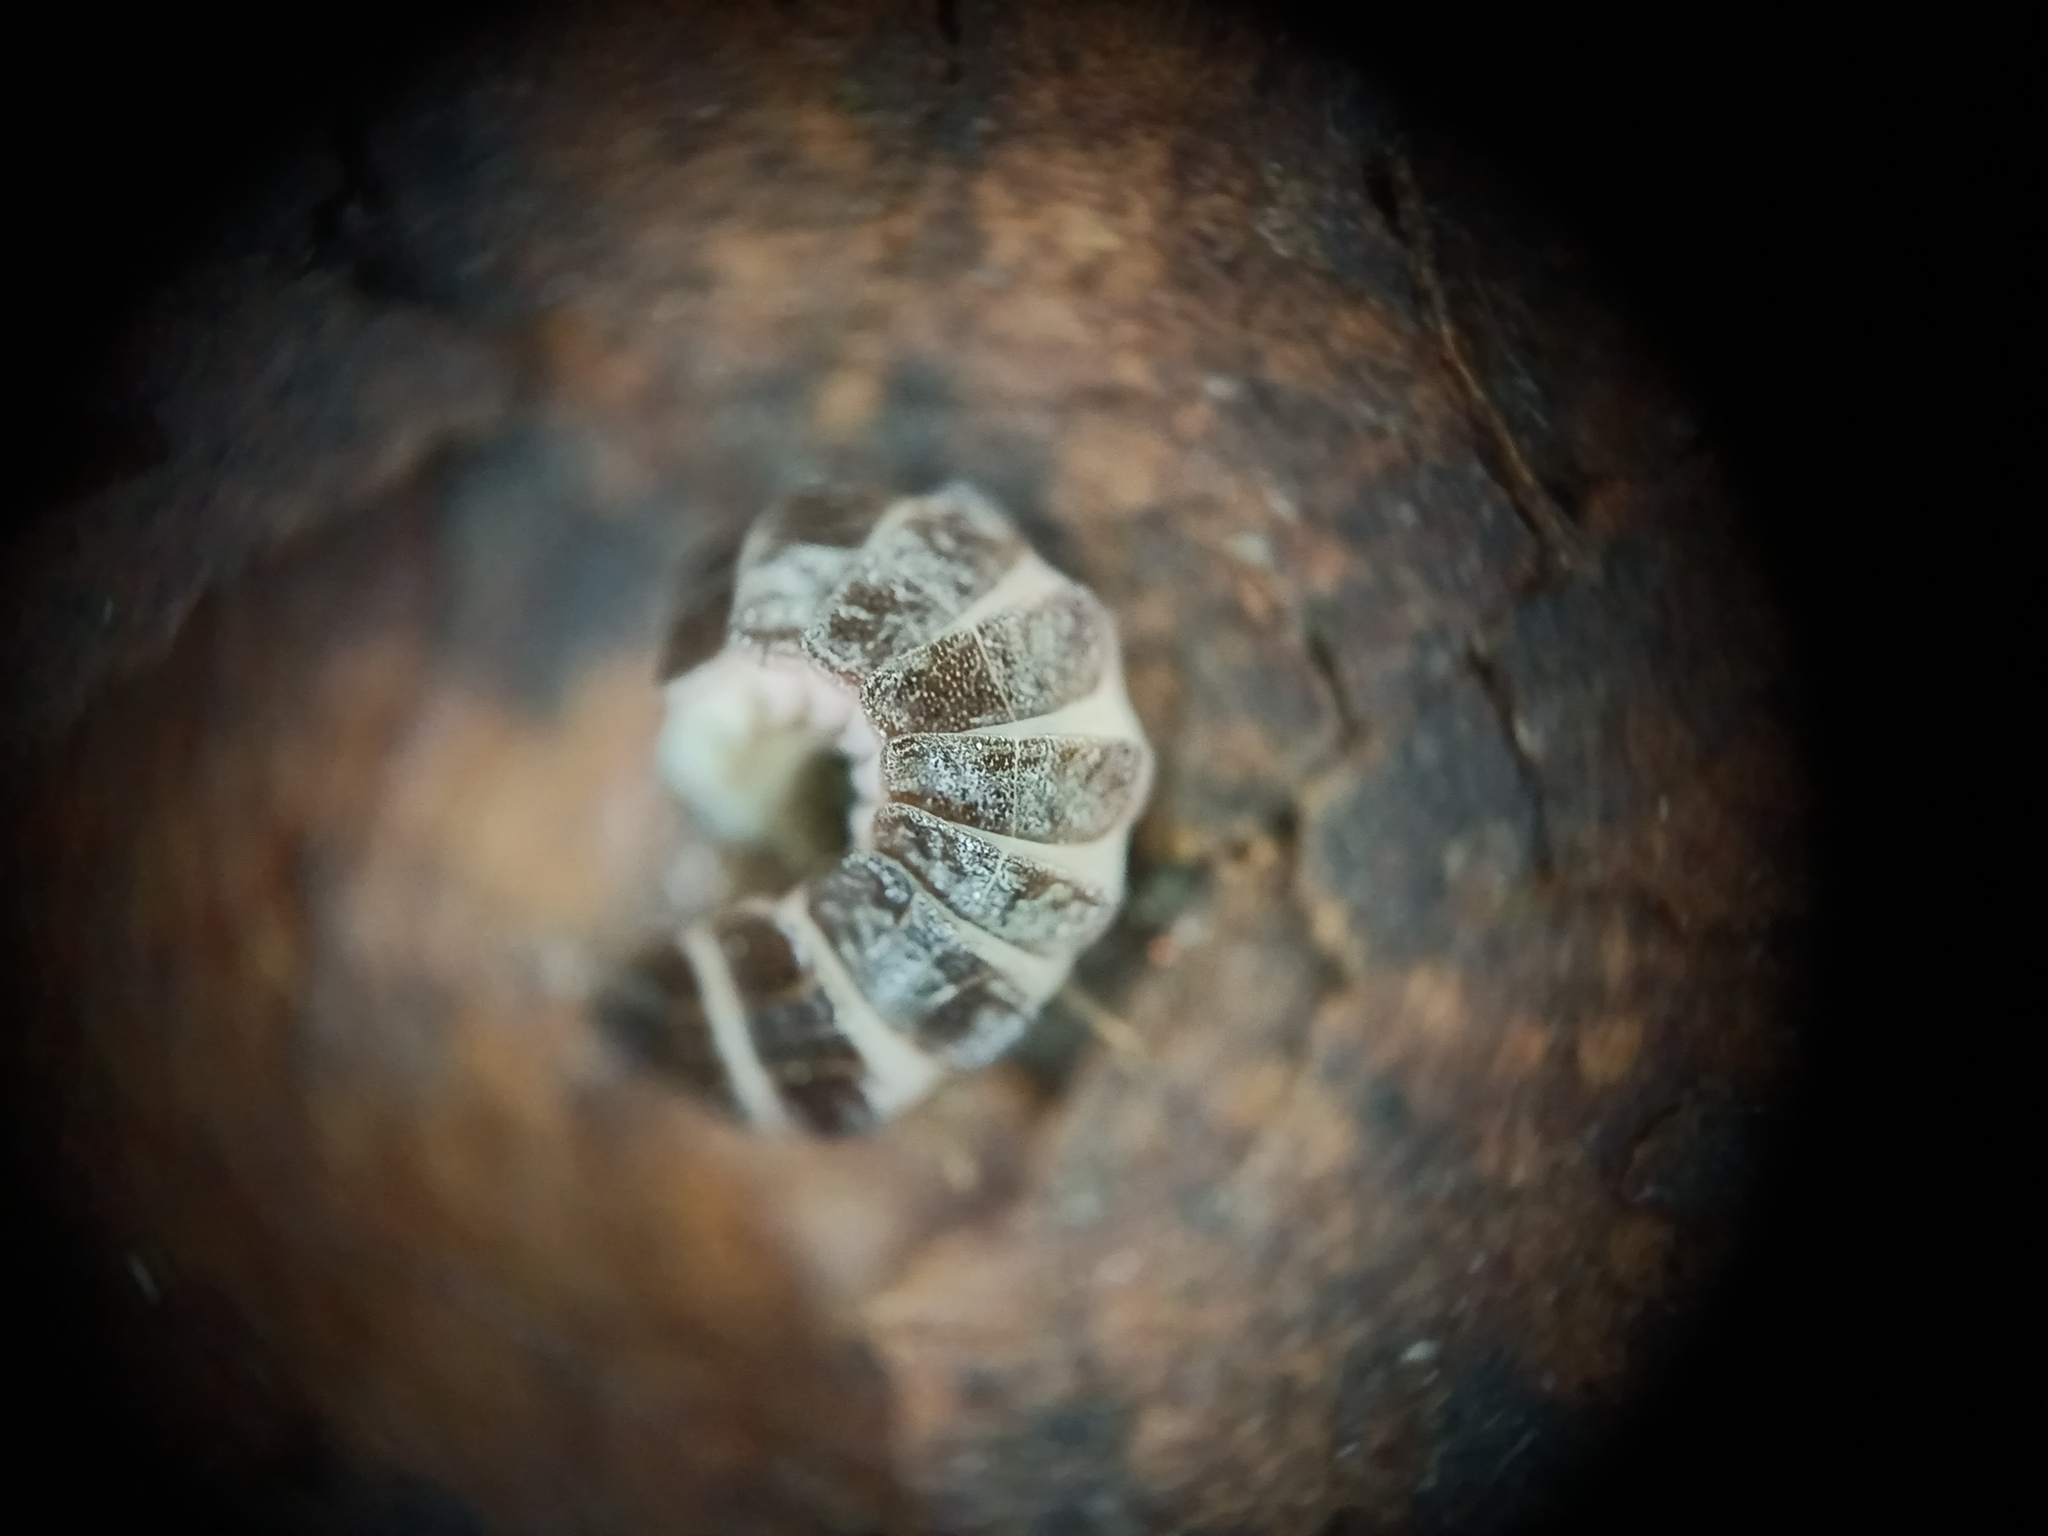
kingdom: Animalia
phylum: Arthropoda
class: Insecta
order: Coleoptera
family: Lampyridae
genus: Phosphaenus
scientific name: Phosphaenus hemipterus
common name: Short-winged firefly
